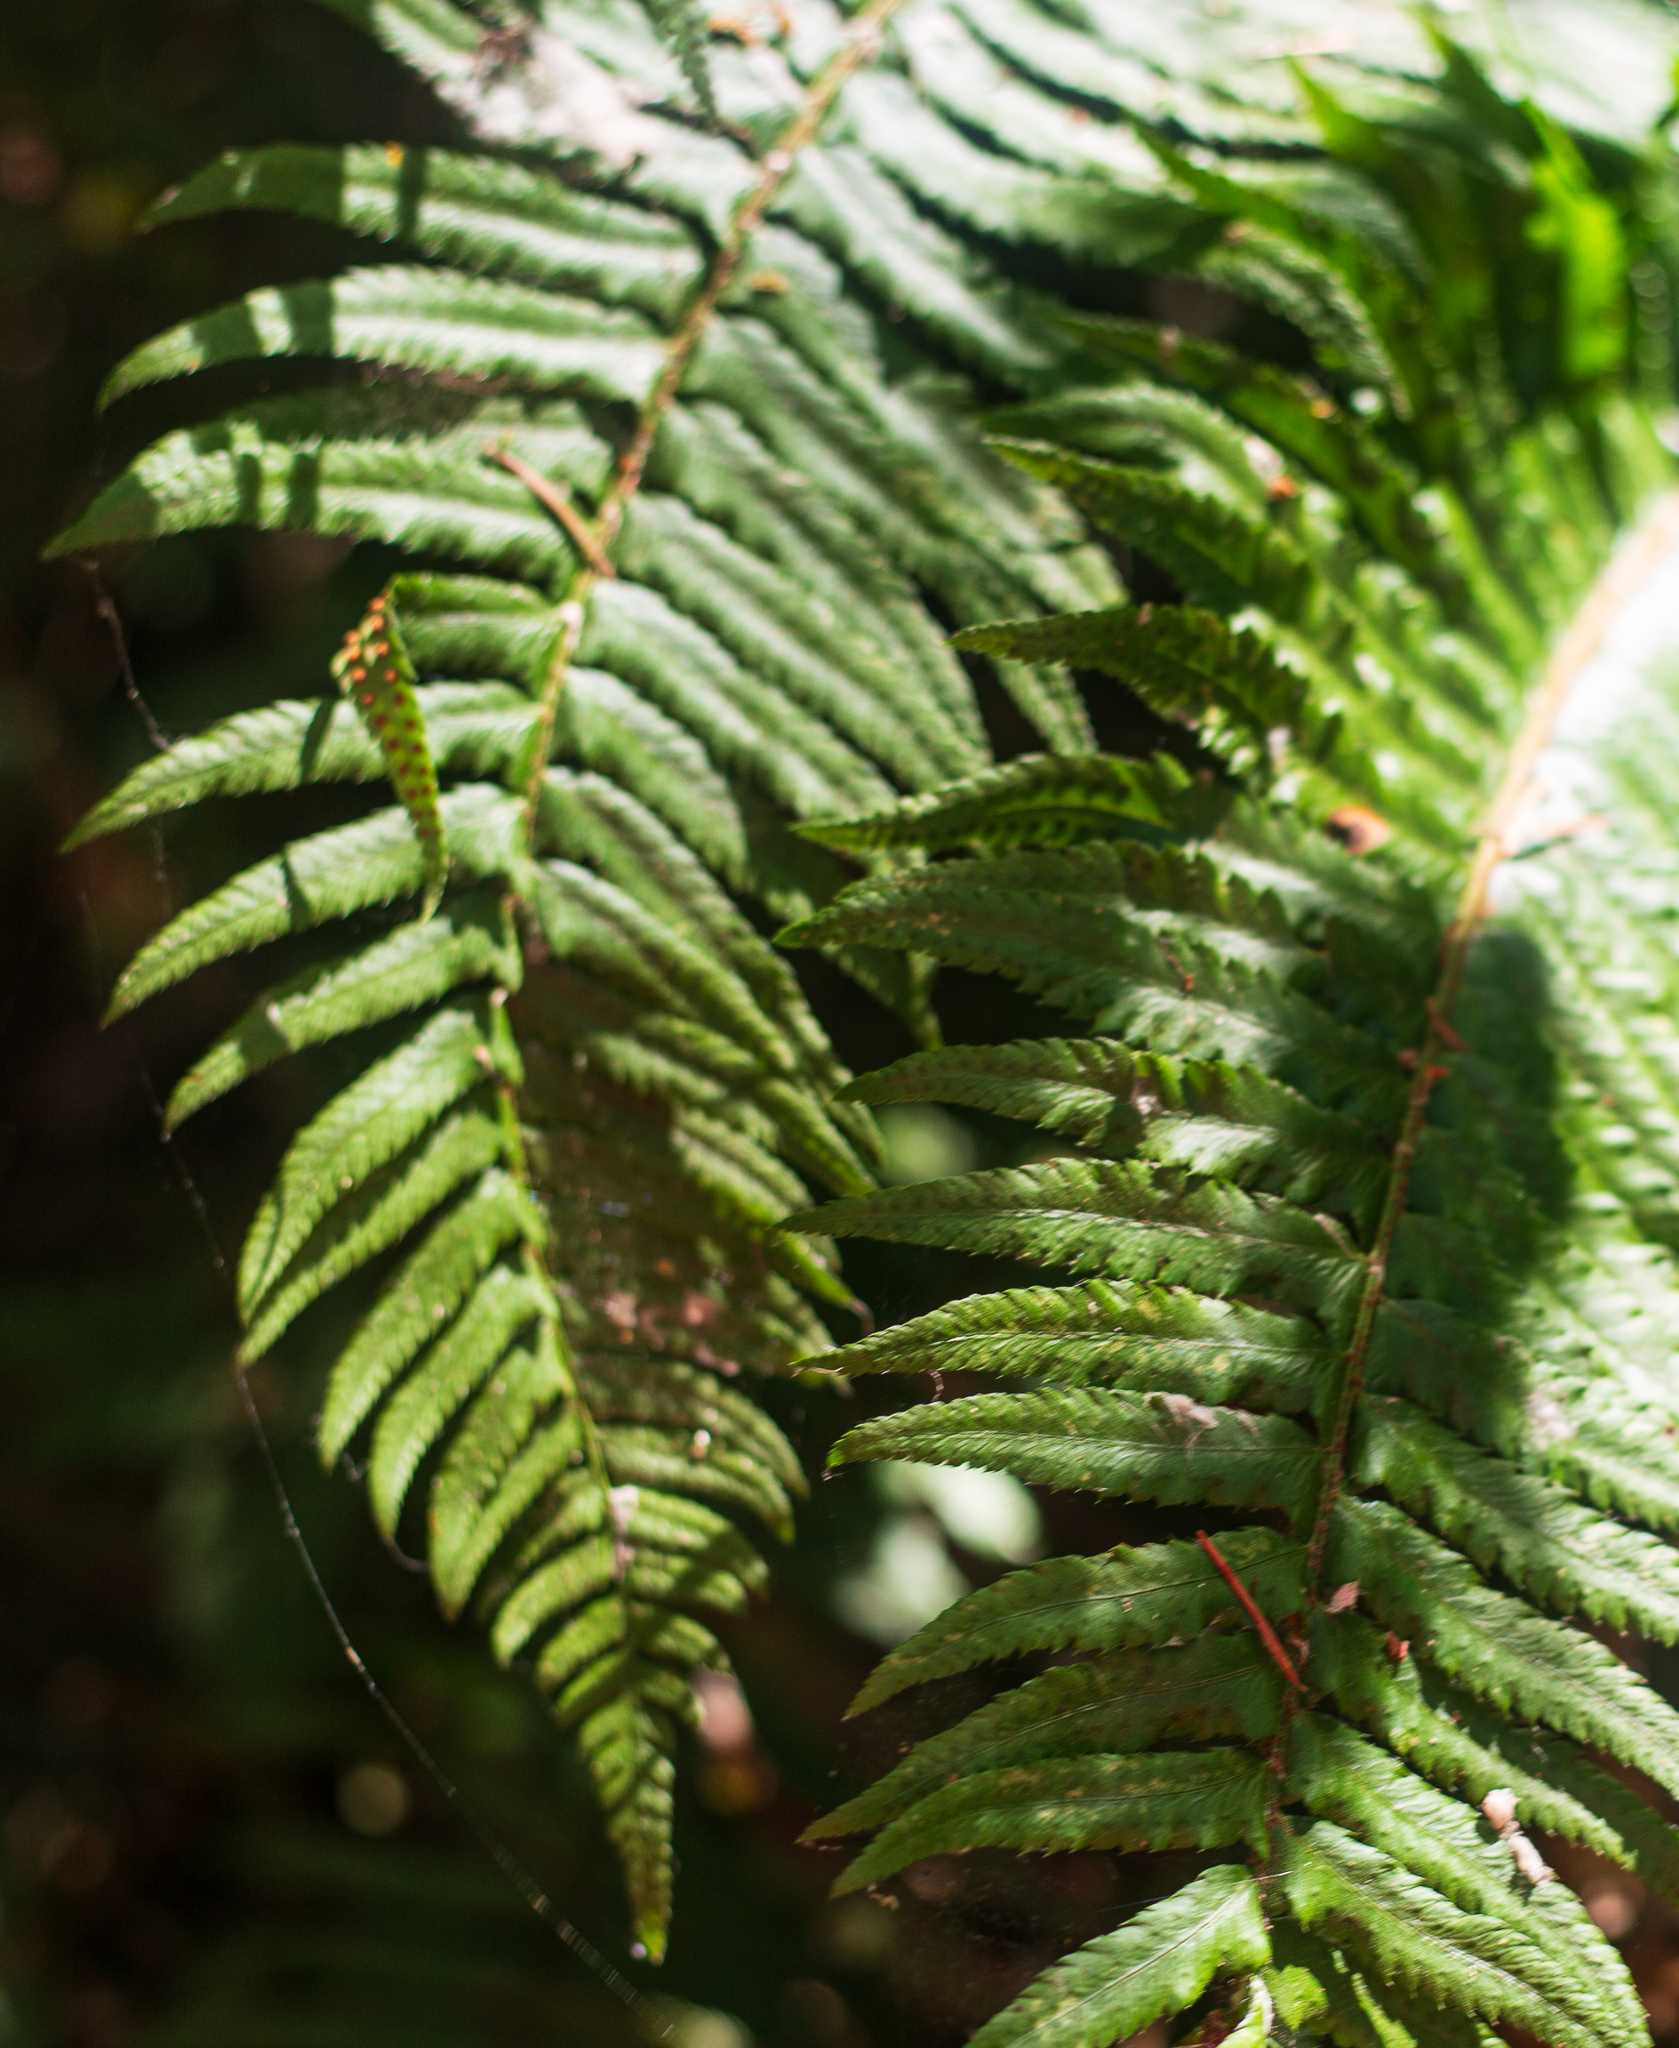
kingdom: Plantae
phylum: Tracheophyta
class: Polypodiopsida
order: Polypodiales
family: Dryopteridaceae
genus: Polystichum
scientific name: Polystichum munitum
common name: Western sword-fern
